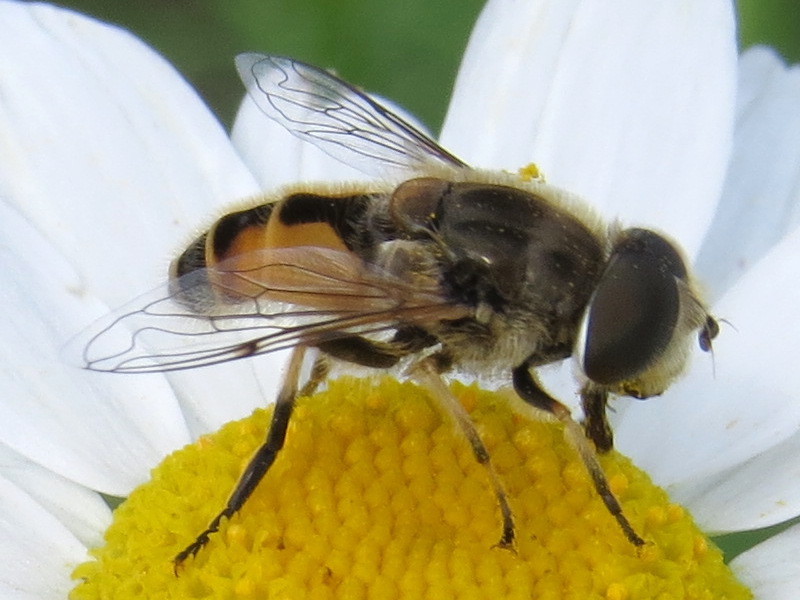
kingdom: Animalia
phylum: Arthropoda
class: Insecta
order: Diptera
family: Syrphidae
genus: Eristalis
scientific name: Eristalis arbustorum
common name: Hover fly
